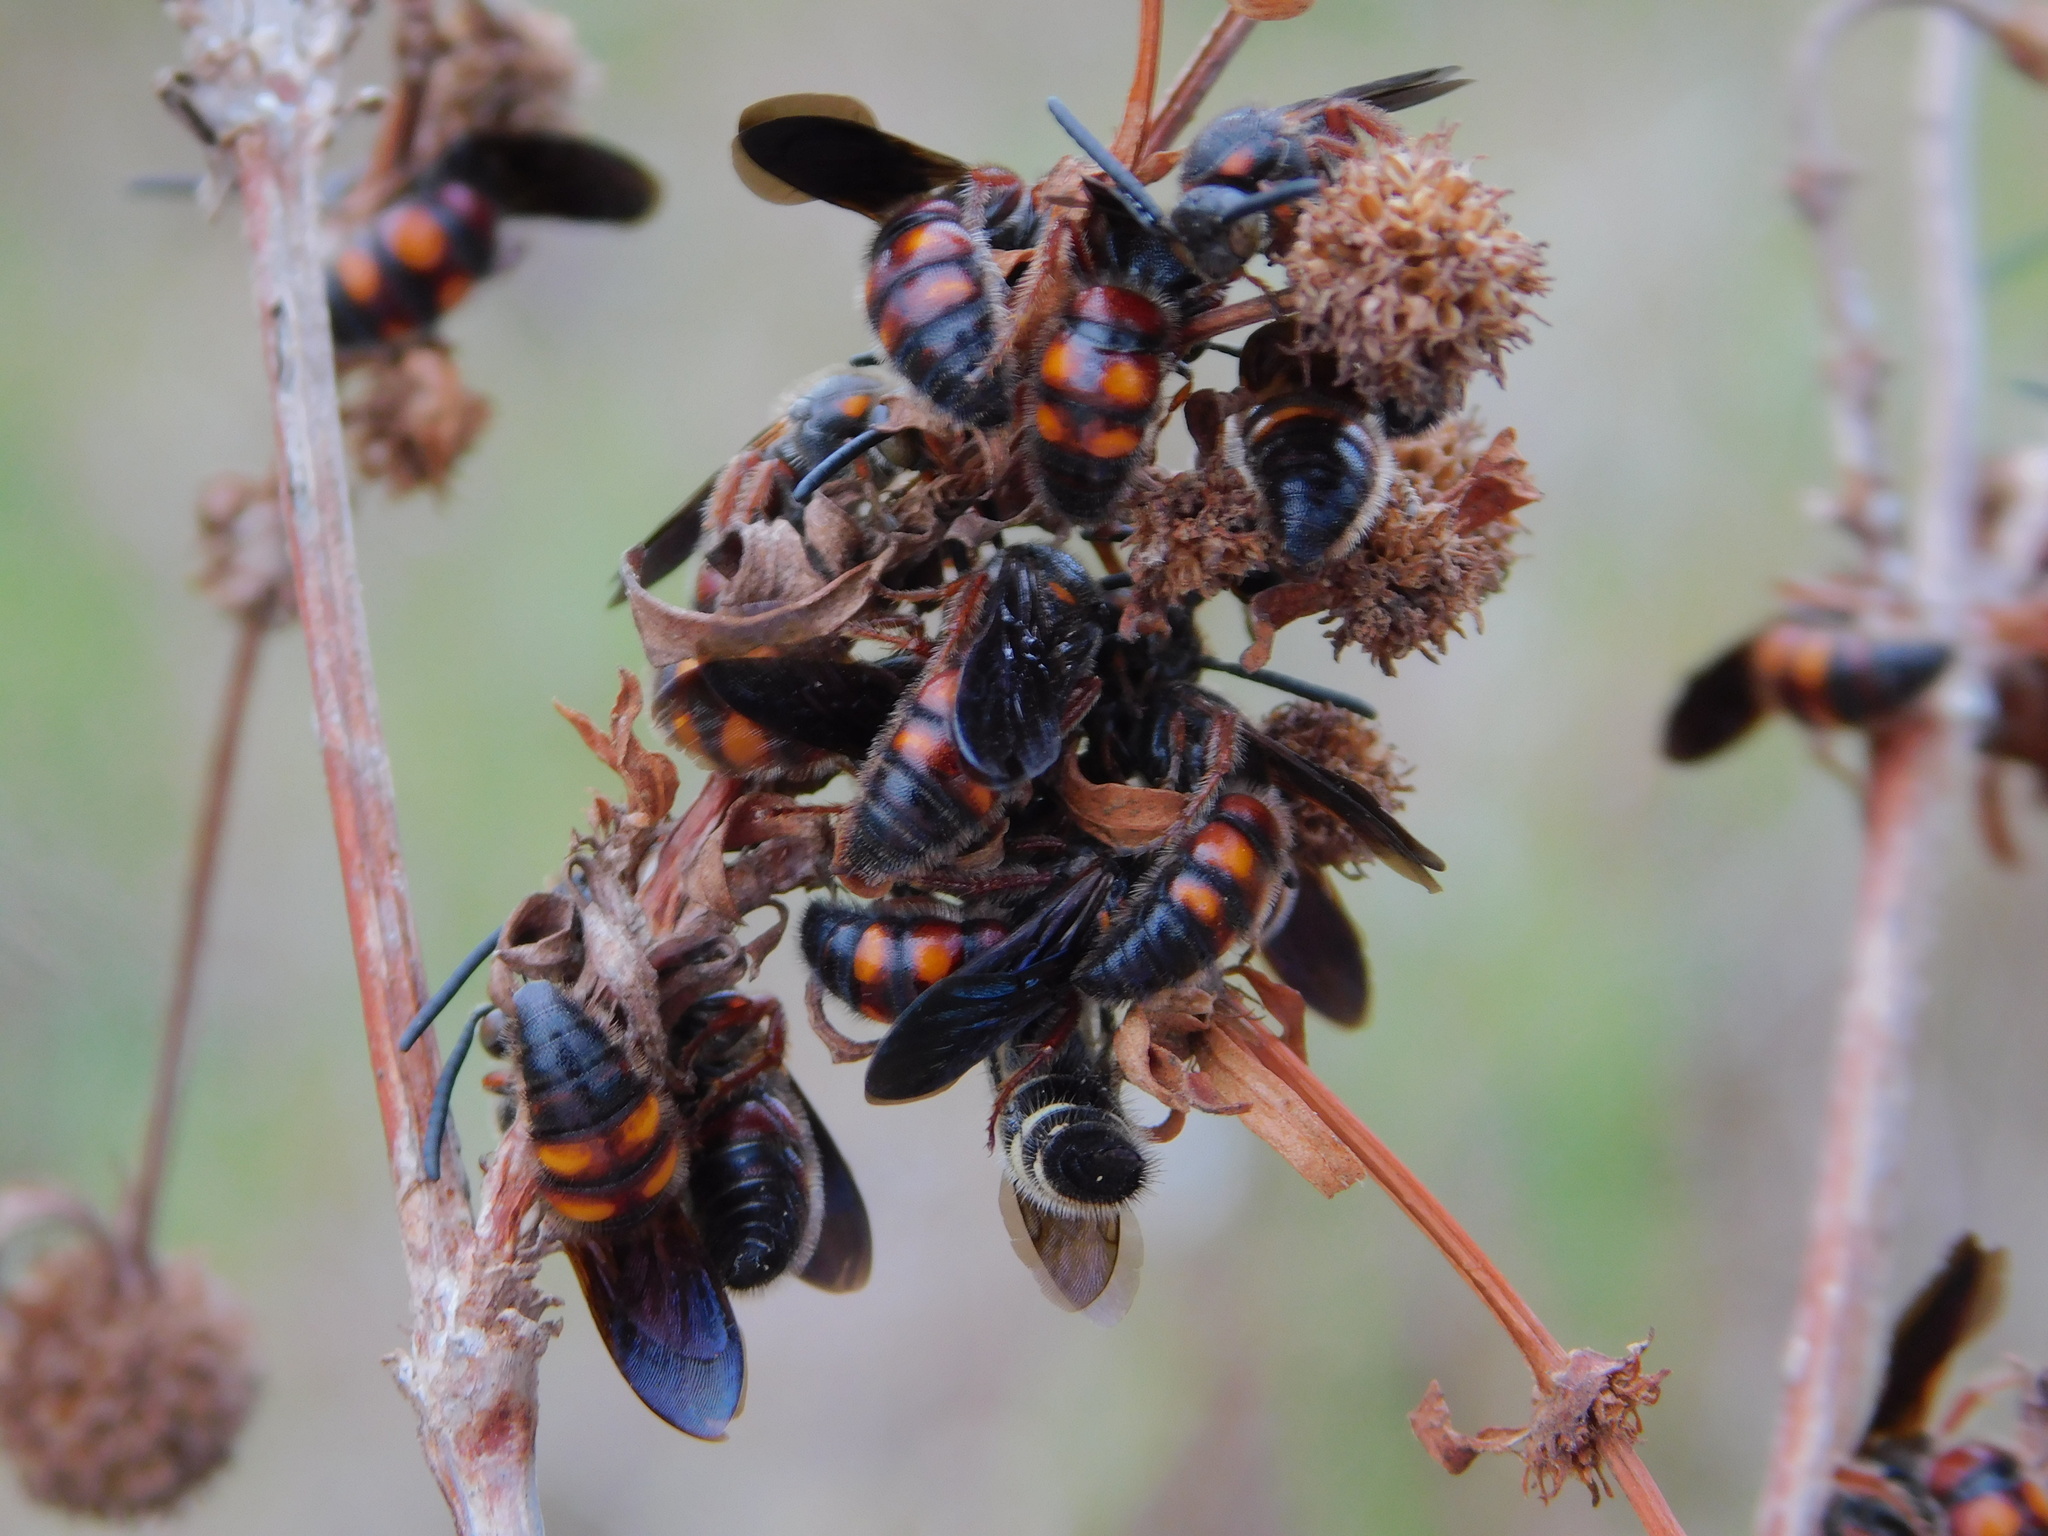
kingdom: Animalia
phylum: Arthropoda
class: Insecta
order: Hymenoptera
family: Scoliidae
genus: Scolia
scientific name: Scolia nobilitata
